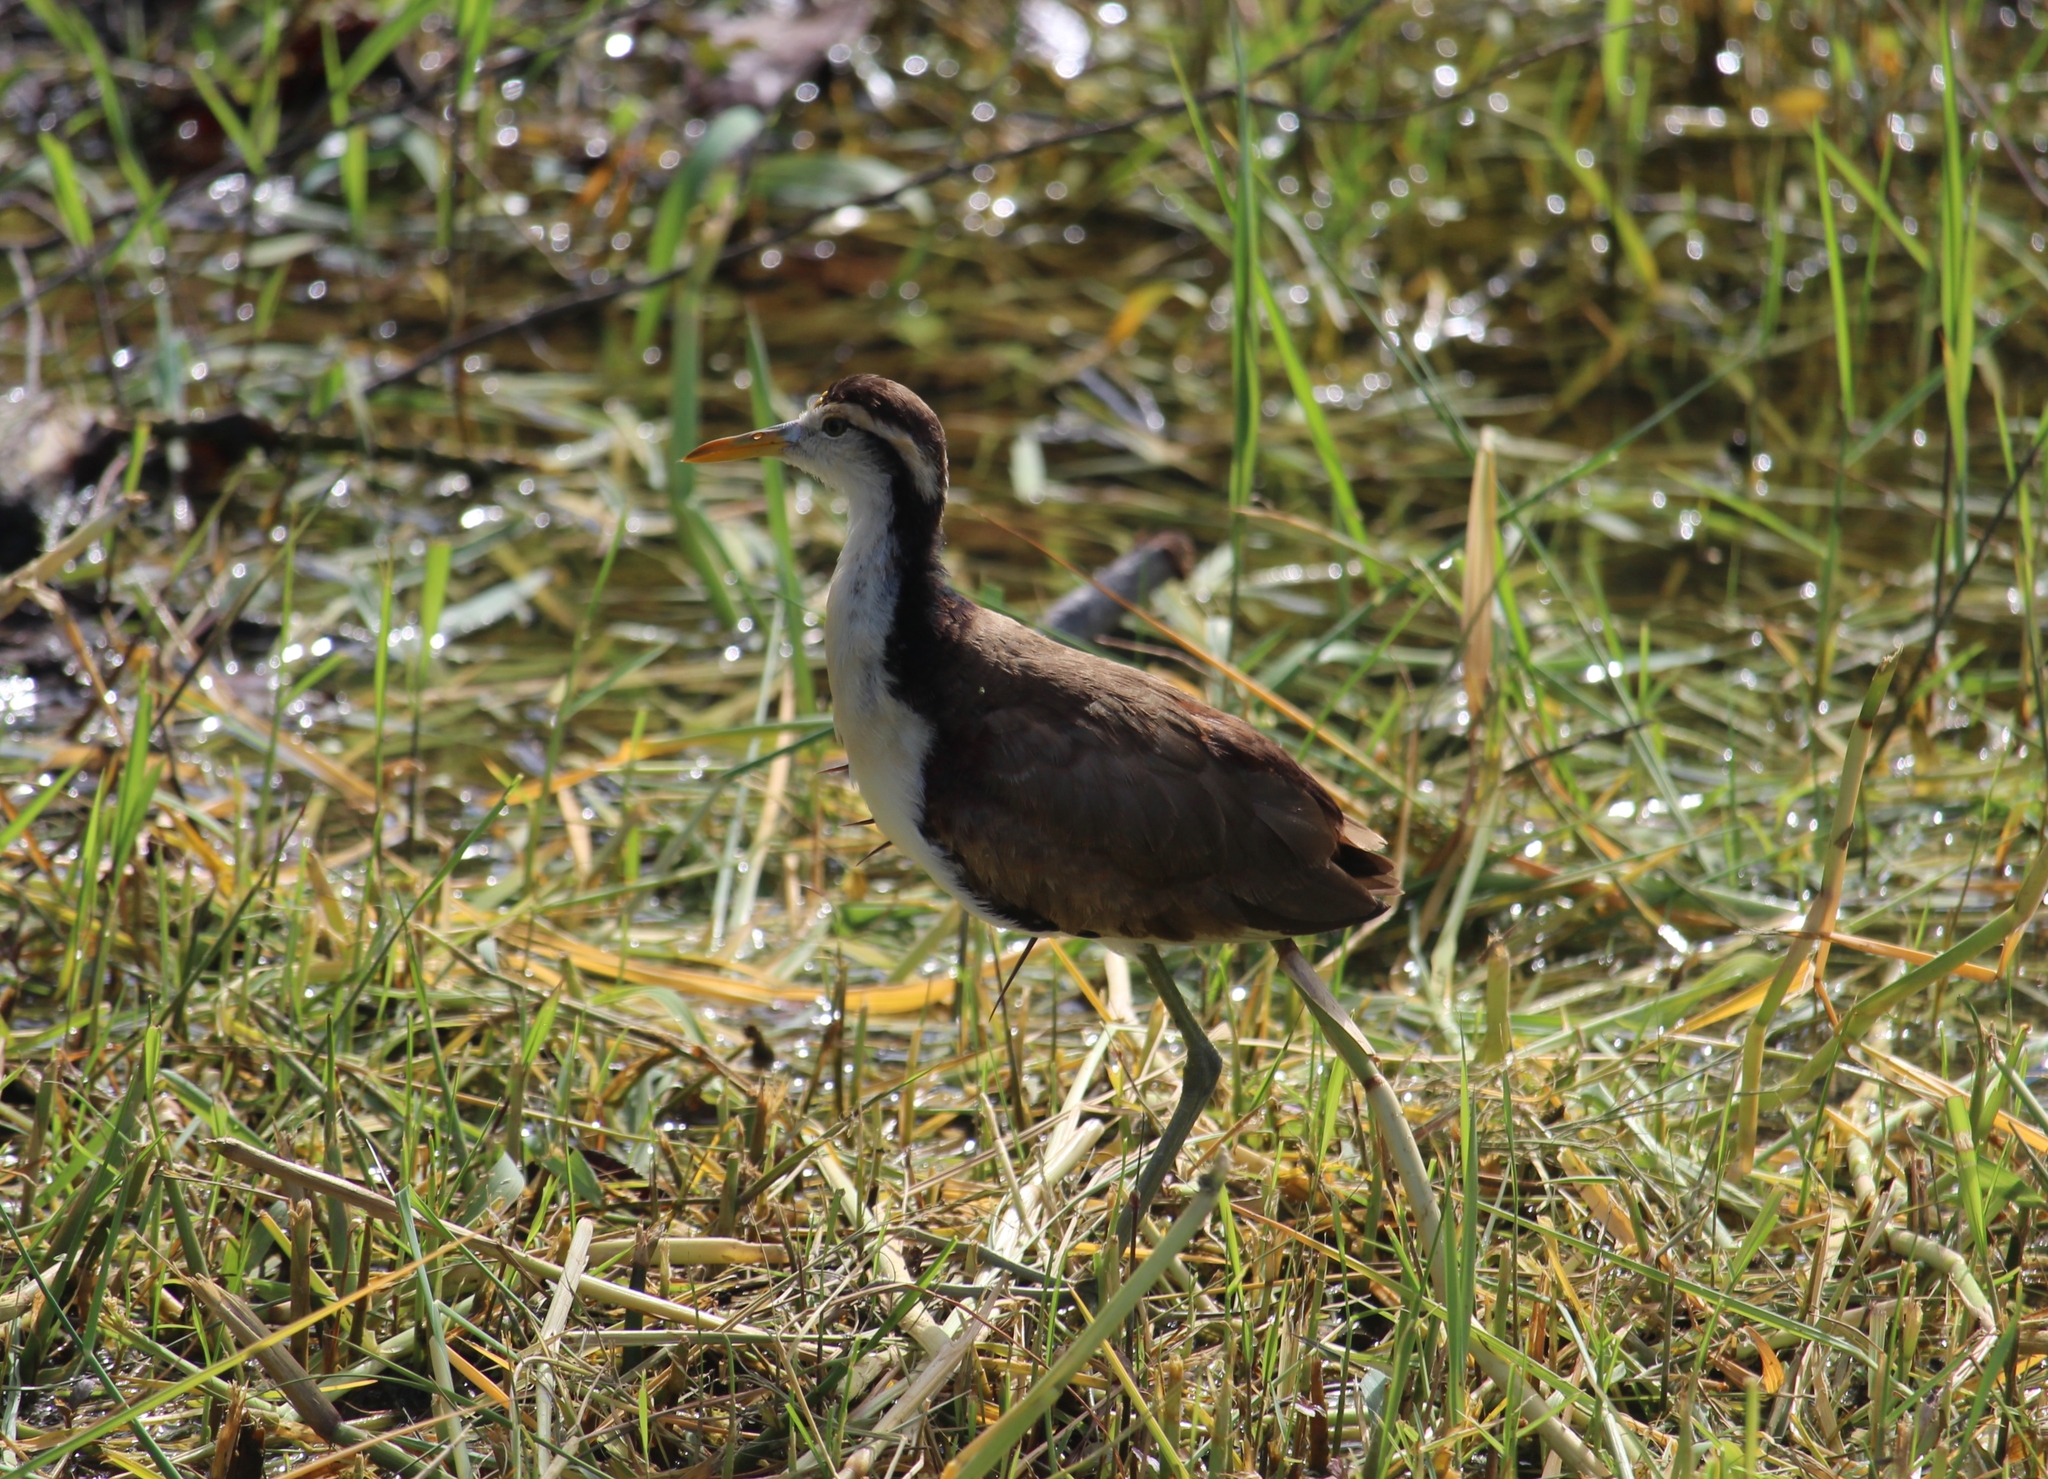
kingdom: Animalia
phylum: Chordata
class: Aves
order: Charadriiformes
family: Jacanidae
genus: Jacana
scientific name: Jacana spinosa
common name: Northern jacana
